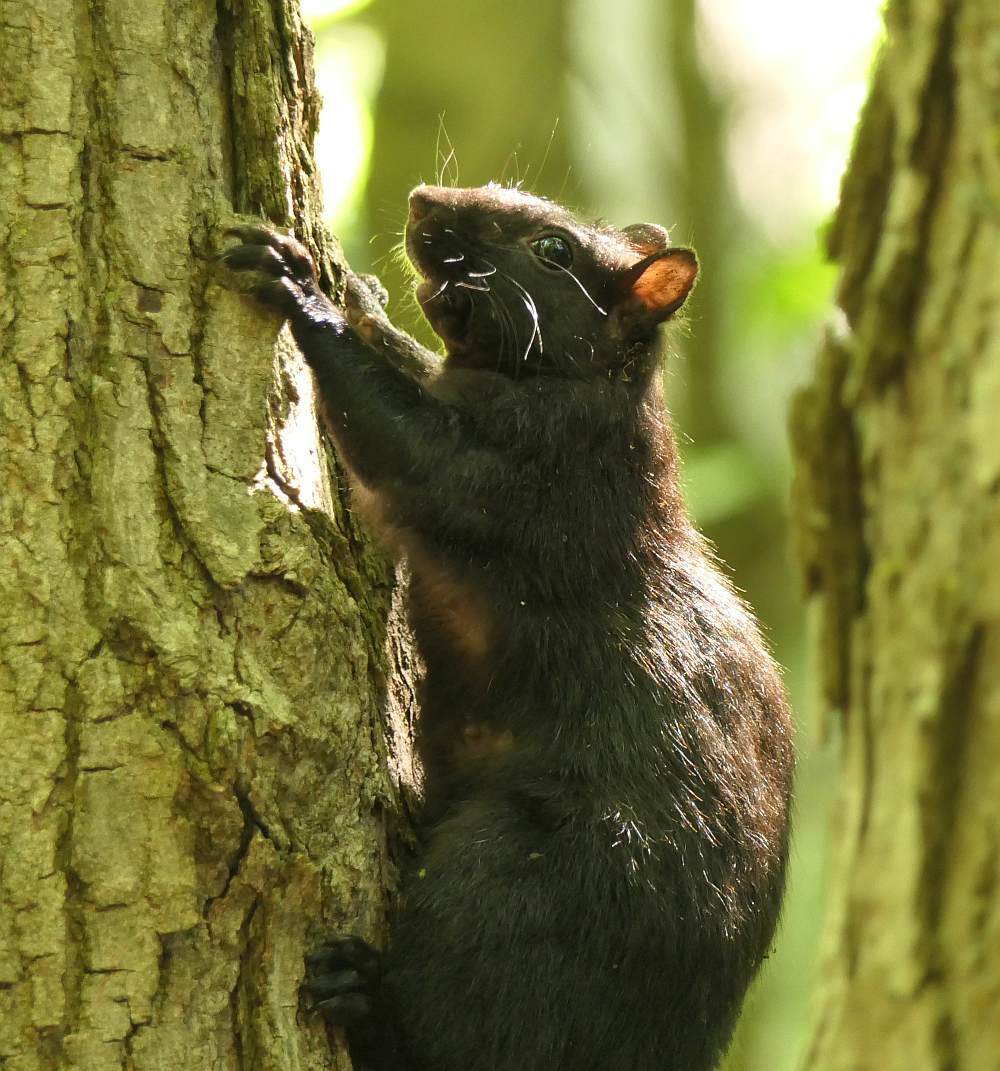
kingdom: Animalia
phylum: Chordata
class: Mammalia
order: Rodentia
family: Sciuridae
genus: Sciurus
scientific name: Sciurus carolinensis
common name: Eastern gray squirrel
